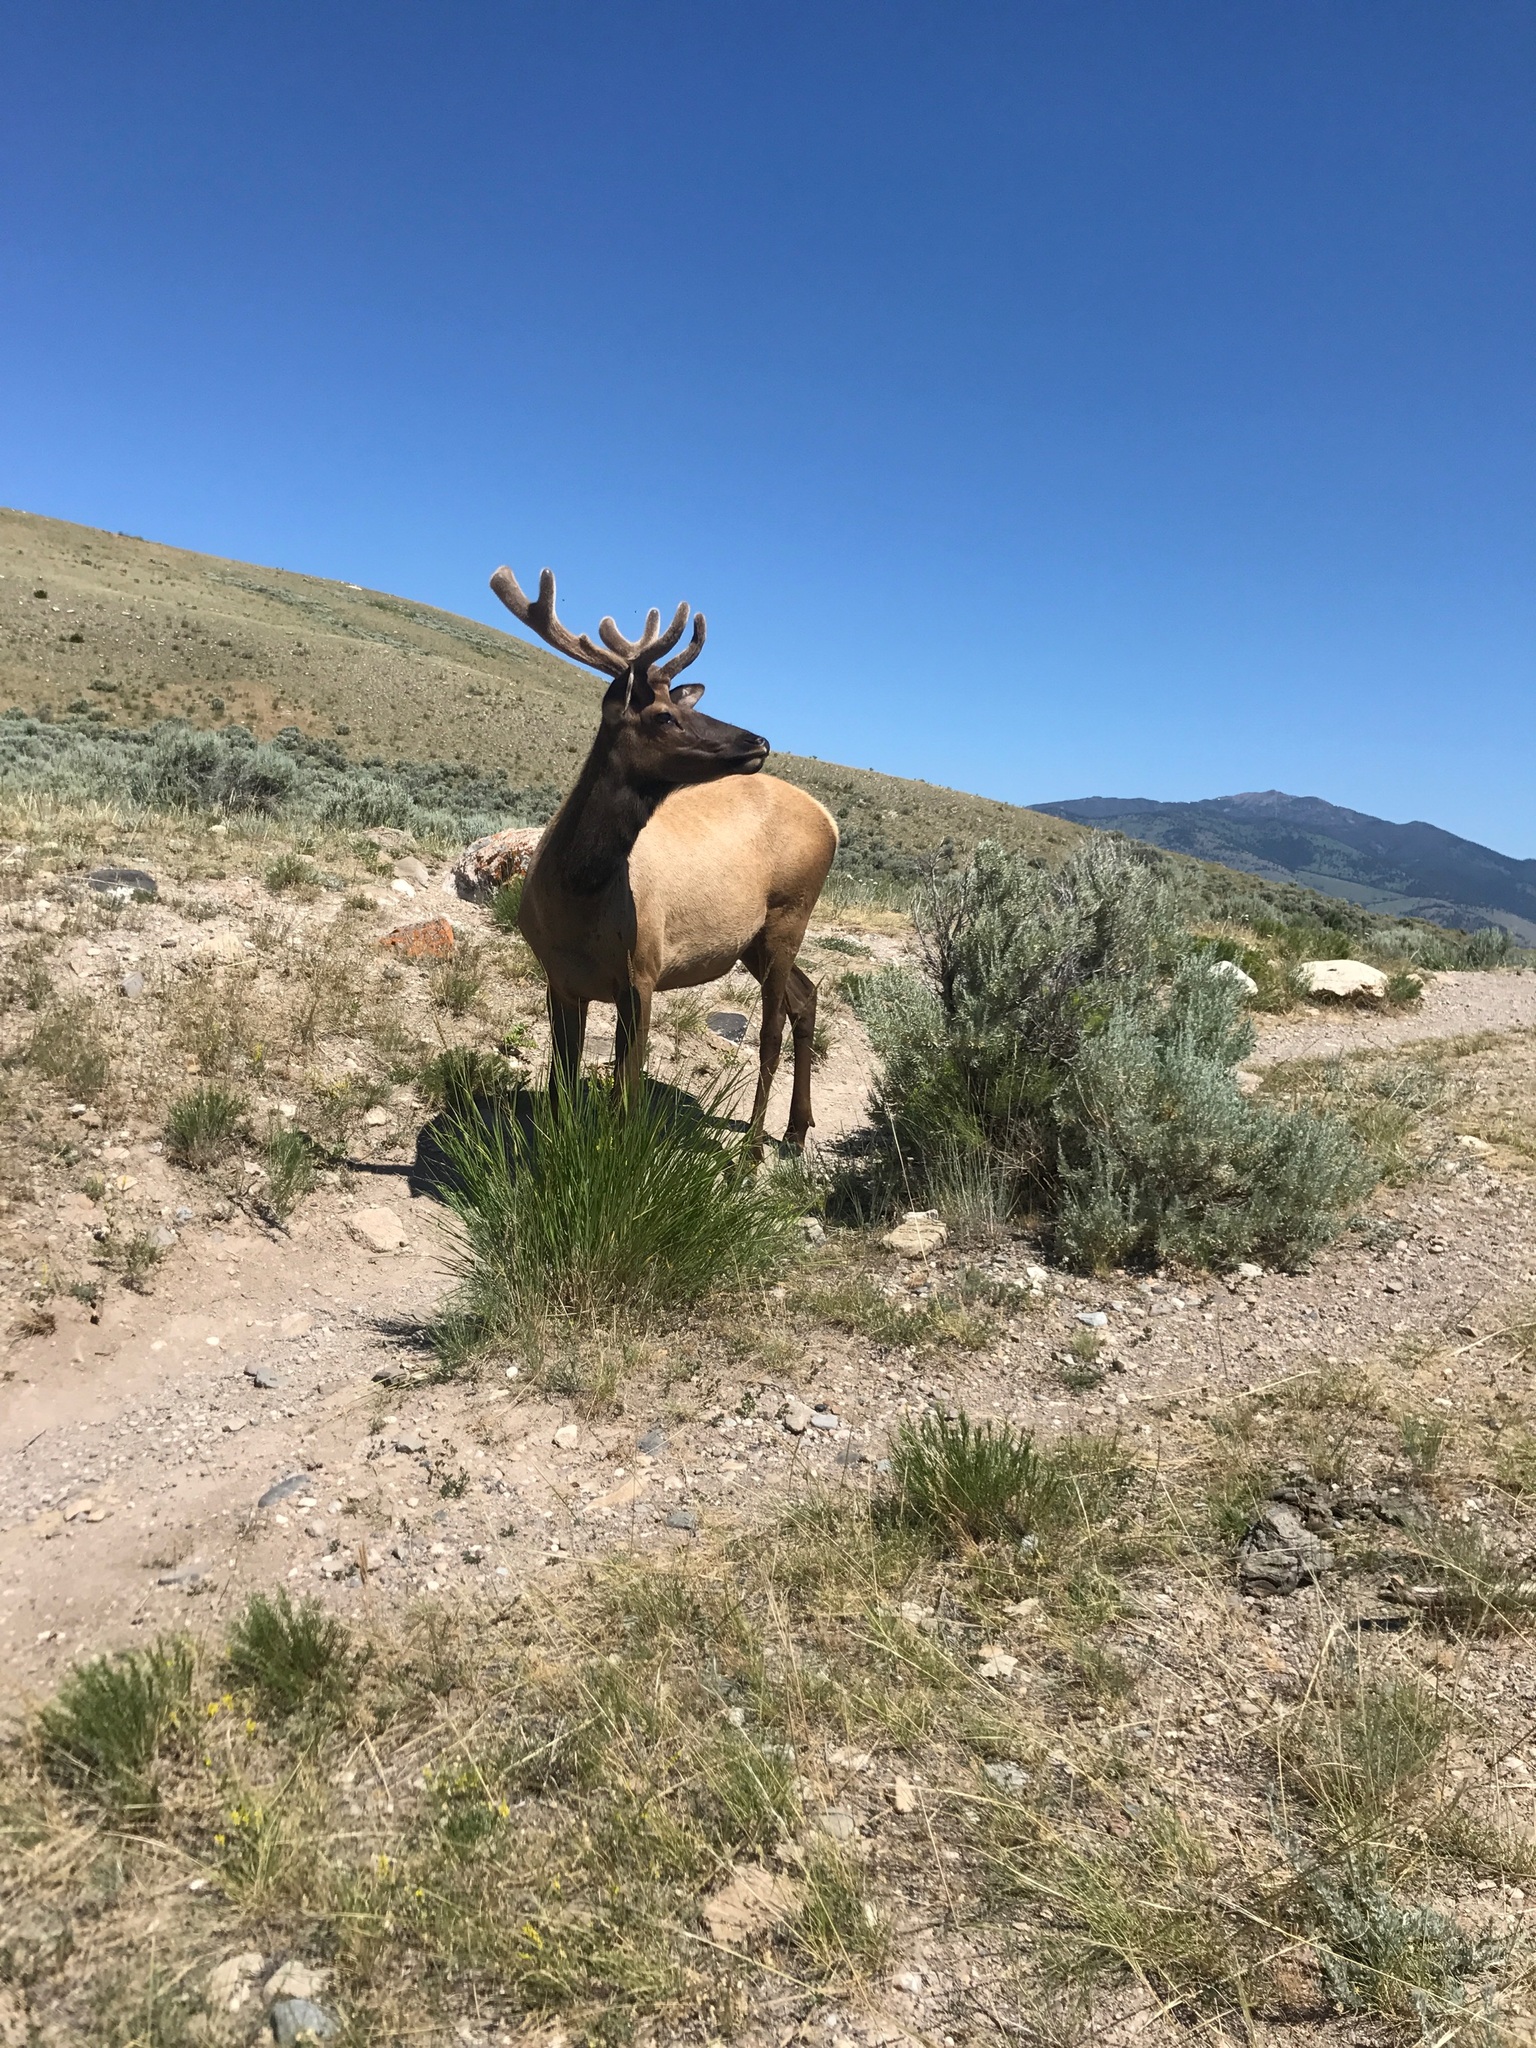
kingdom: Animalia
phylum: Chordata
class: Mammalia
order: Artiodactyla
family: Cervidae
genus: Cervus
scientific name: Cervus elaphus
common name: Red deer
